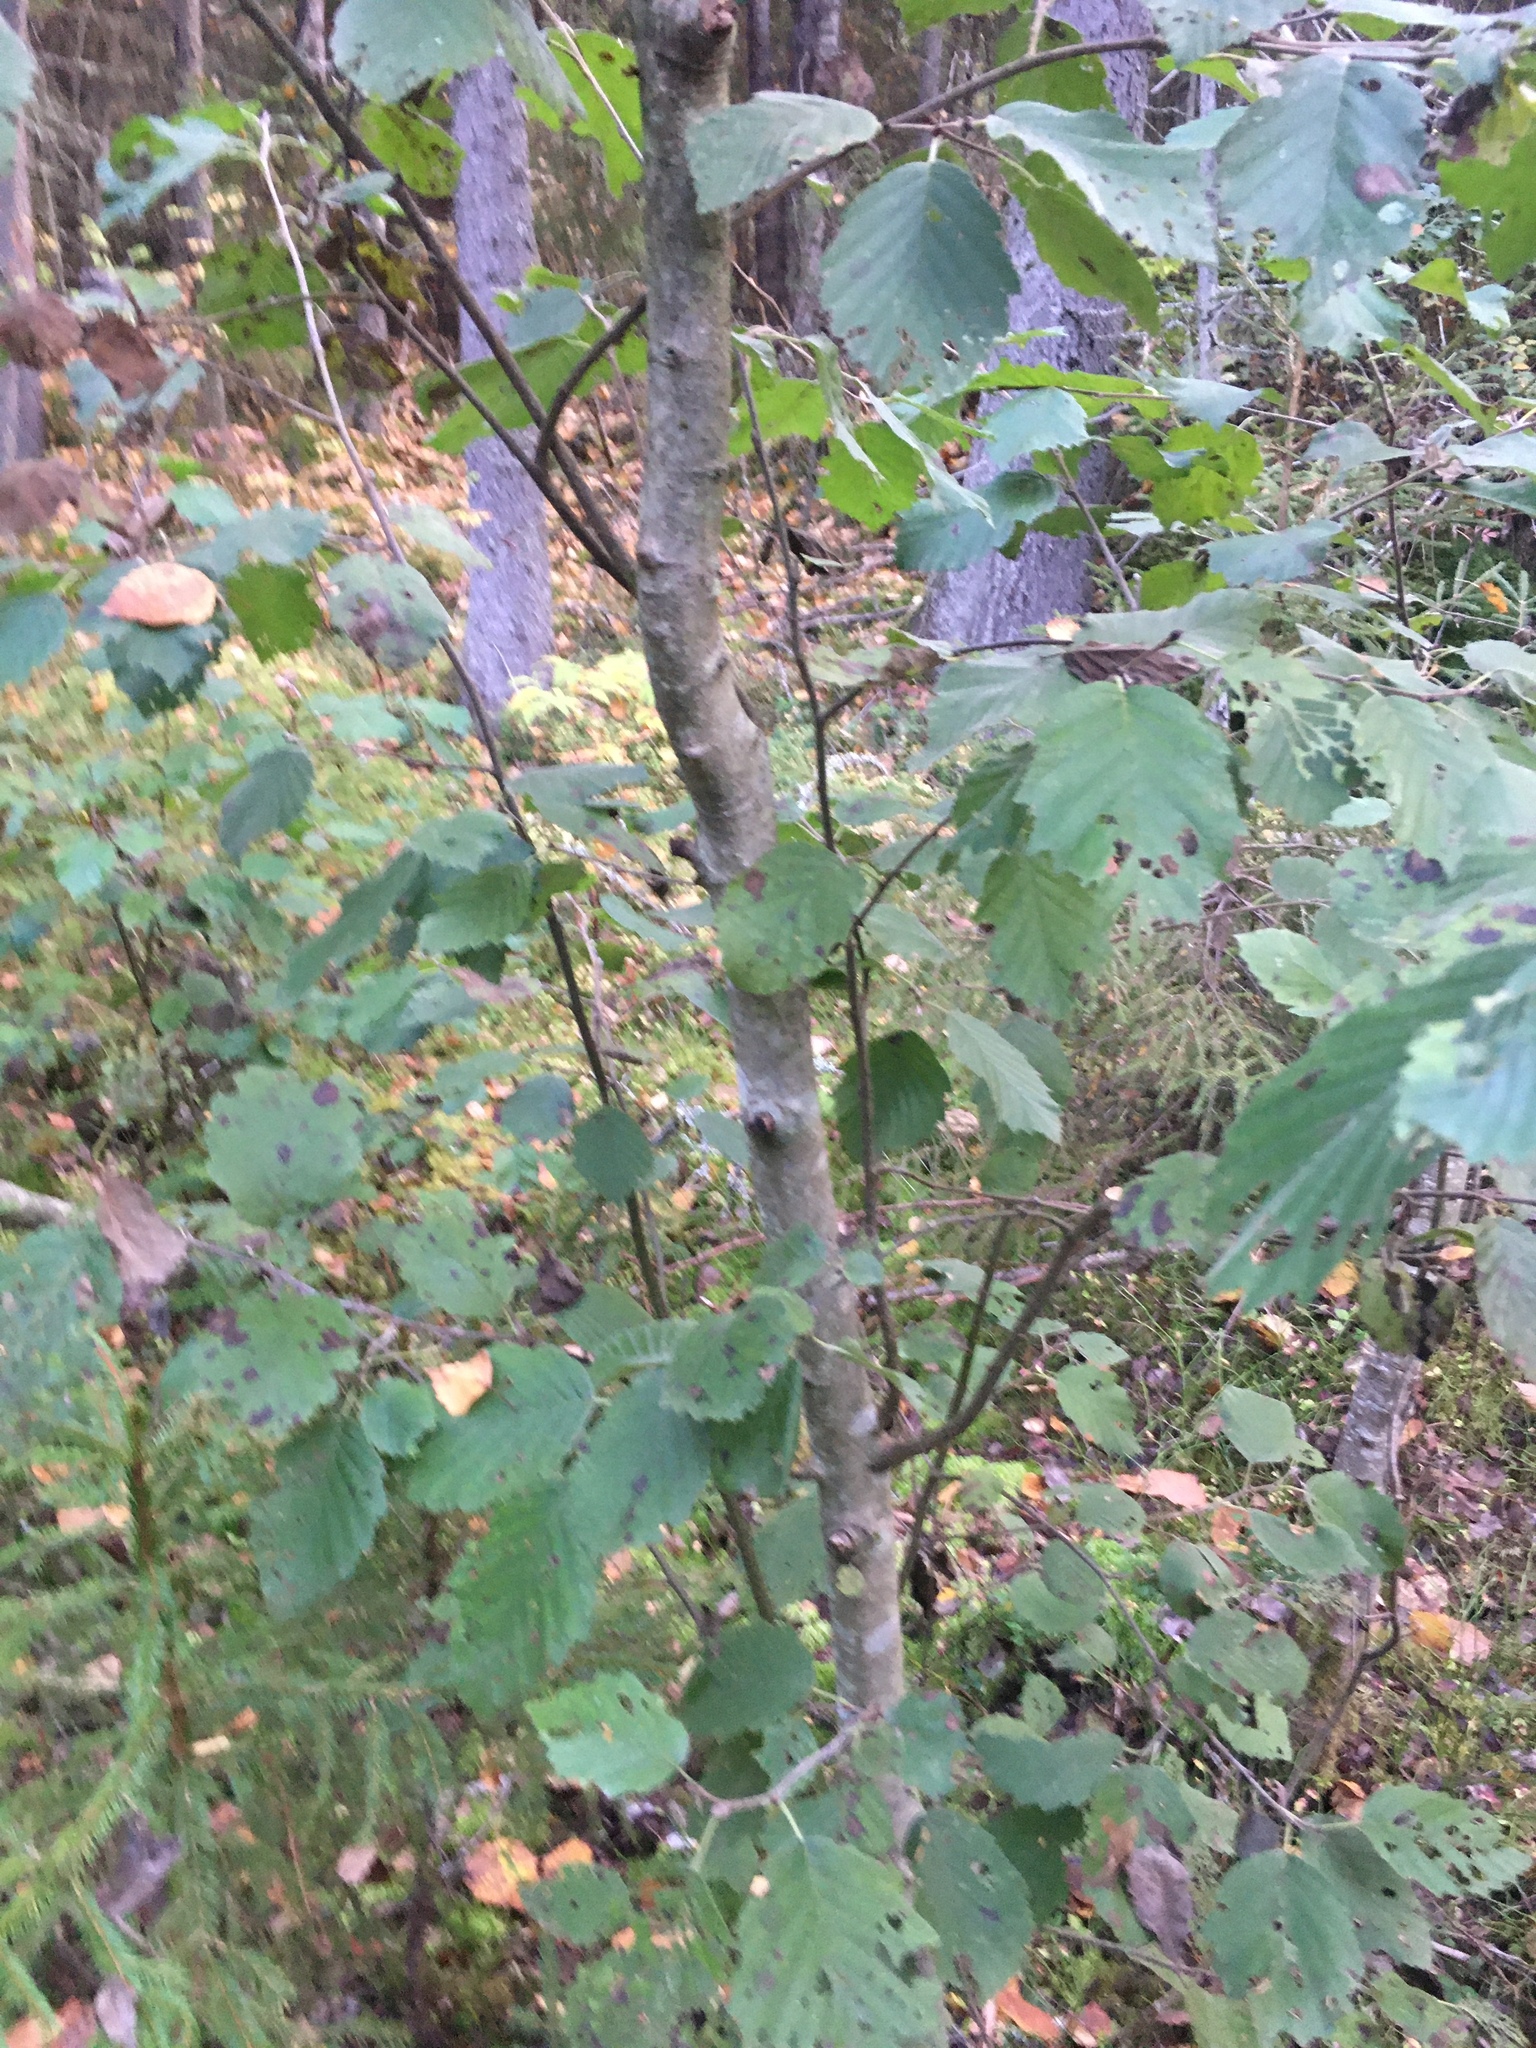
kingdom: Plantae
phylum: Tracheophyta
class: Magnoliopsida
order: Fagales
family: Betulaceae
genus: Alnus
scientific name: Alnus incana
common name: Grey alder
